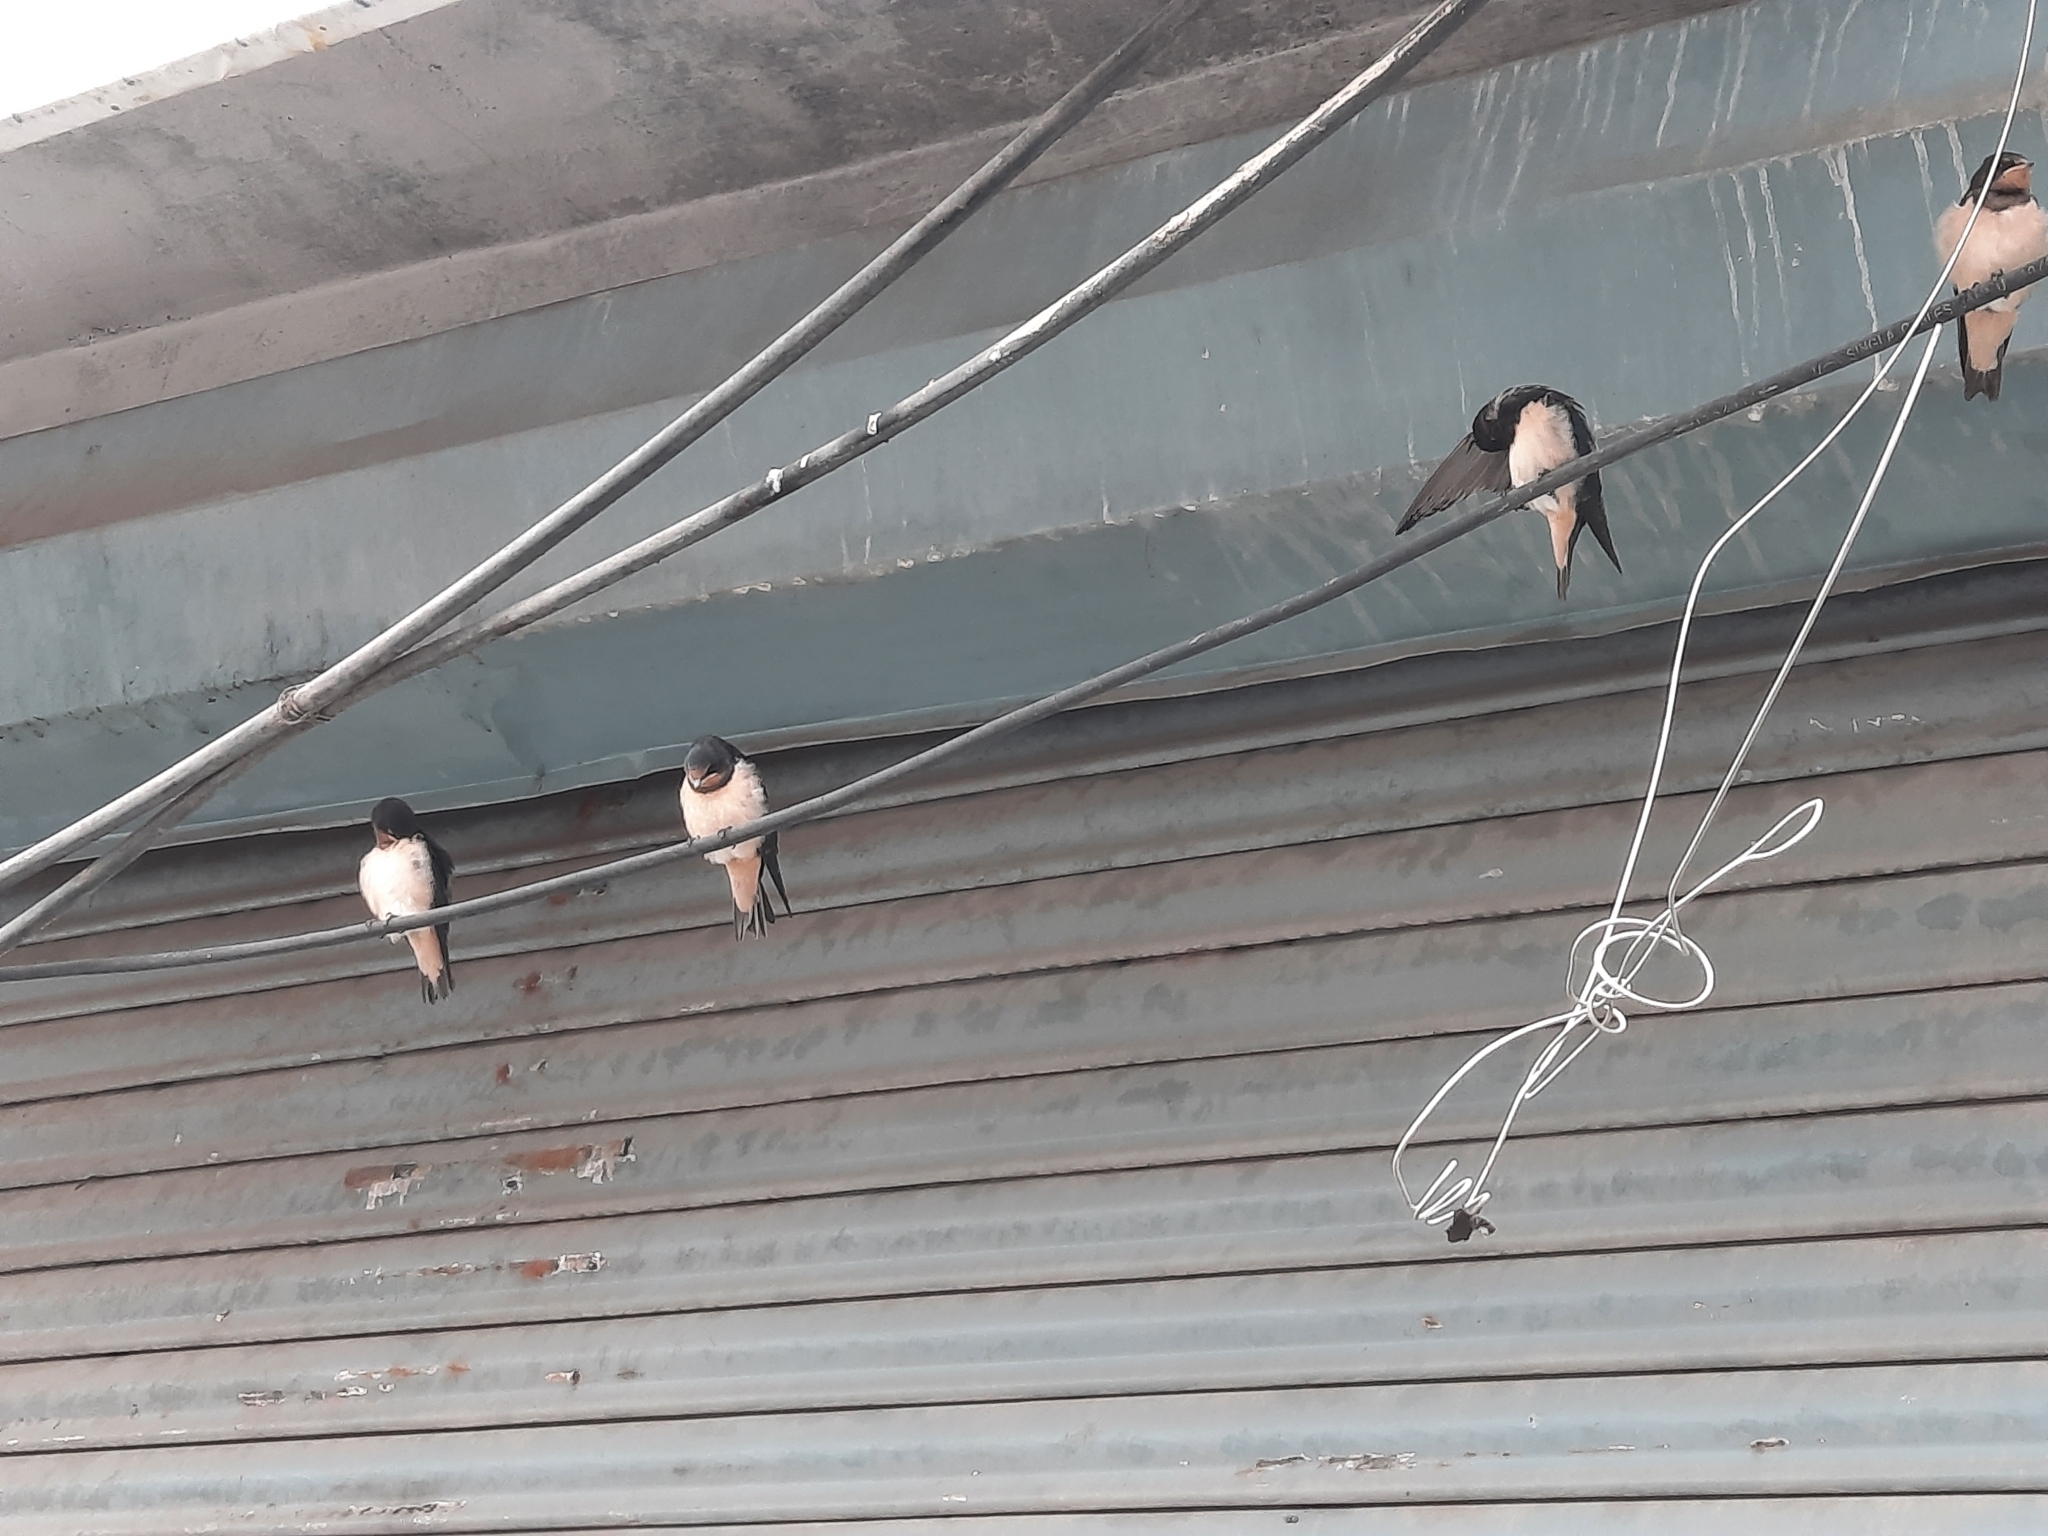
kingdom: Animalia
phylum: Chordata
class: Aves
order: Passeriformes
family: Hirundinidae
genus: Hirundo
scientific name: Hirundo rustica
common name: Barn swallow
